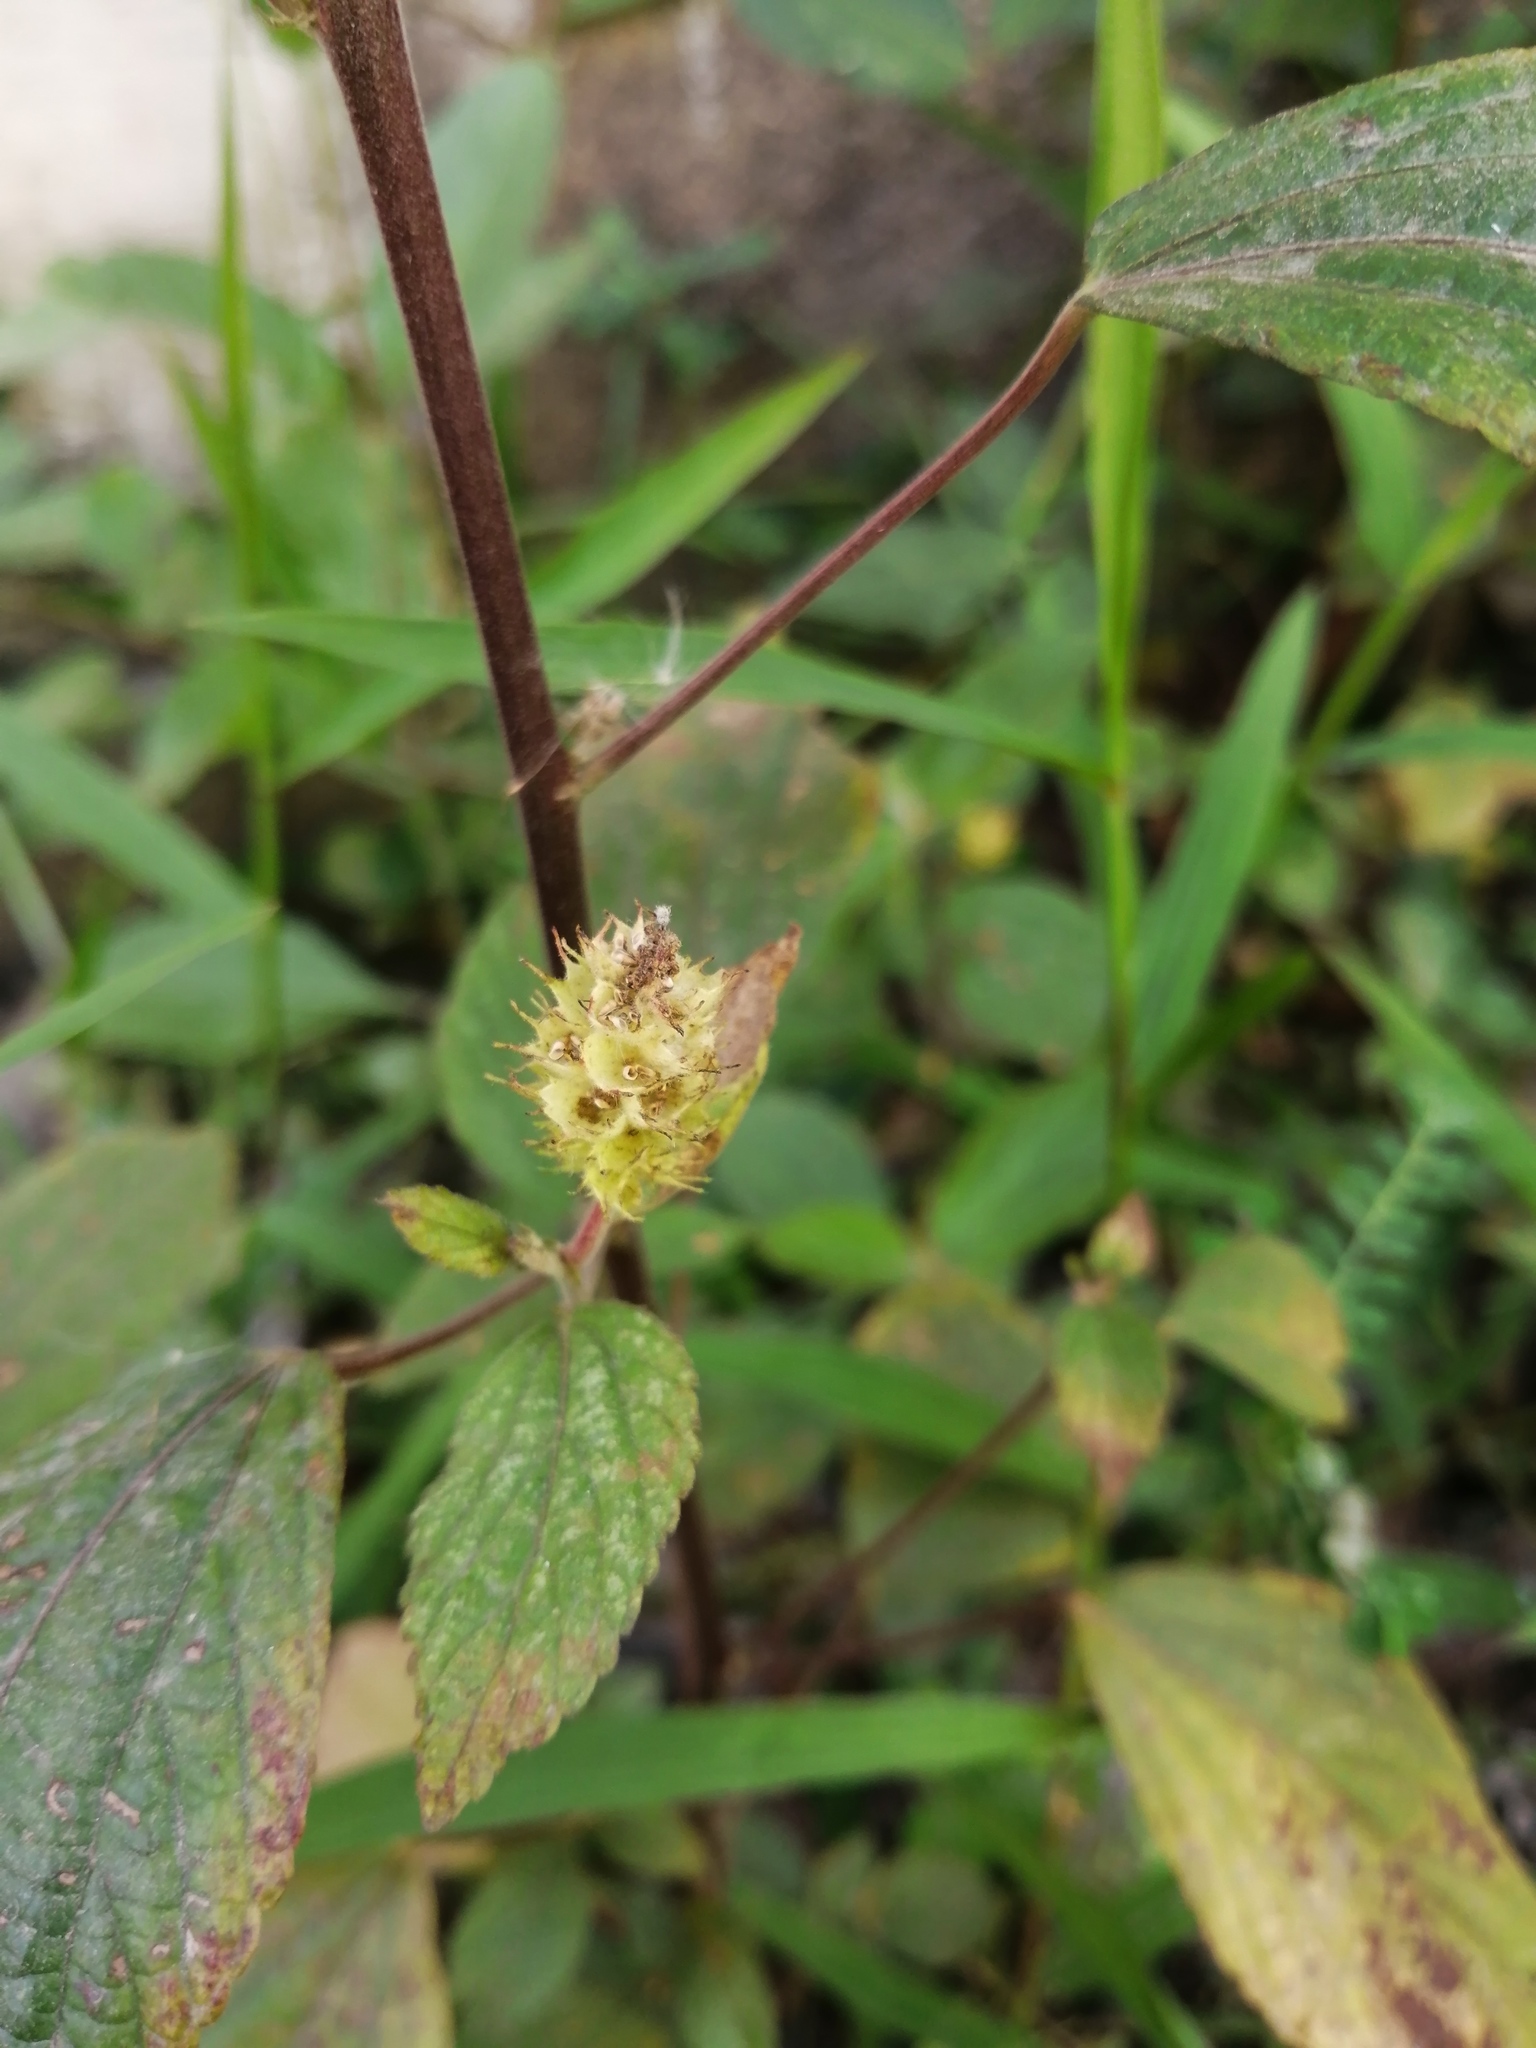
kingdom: Plantae
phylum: Tracheophyta
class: Magnoliopsida
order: Malpighiales
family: Euphorbiaceae
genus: Acalypha
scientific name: Acalypha arvensis
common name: Field copperleaf
